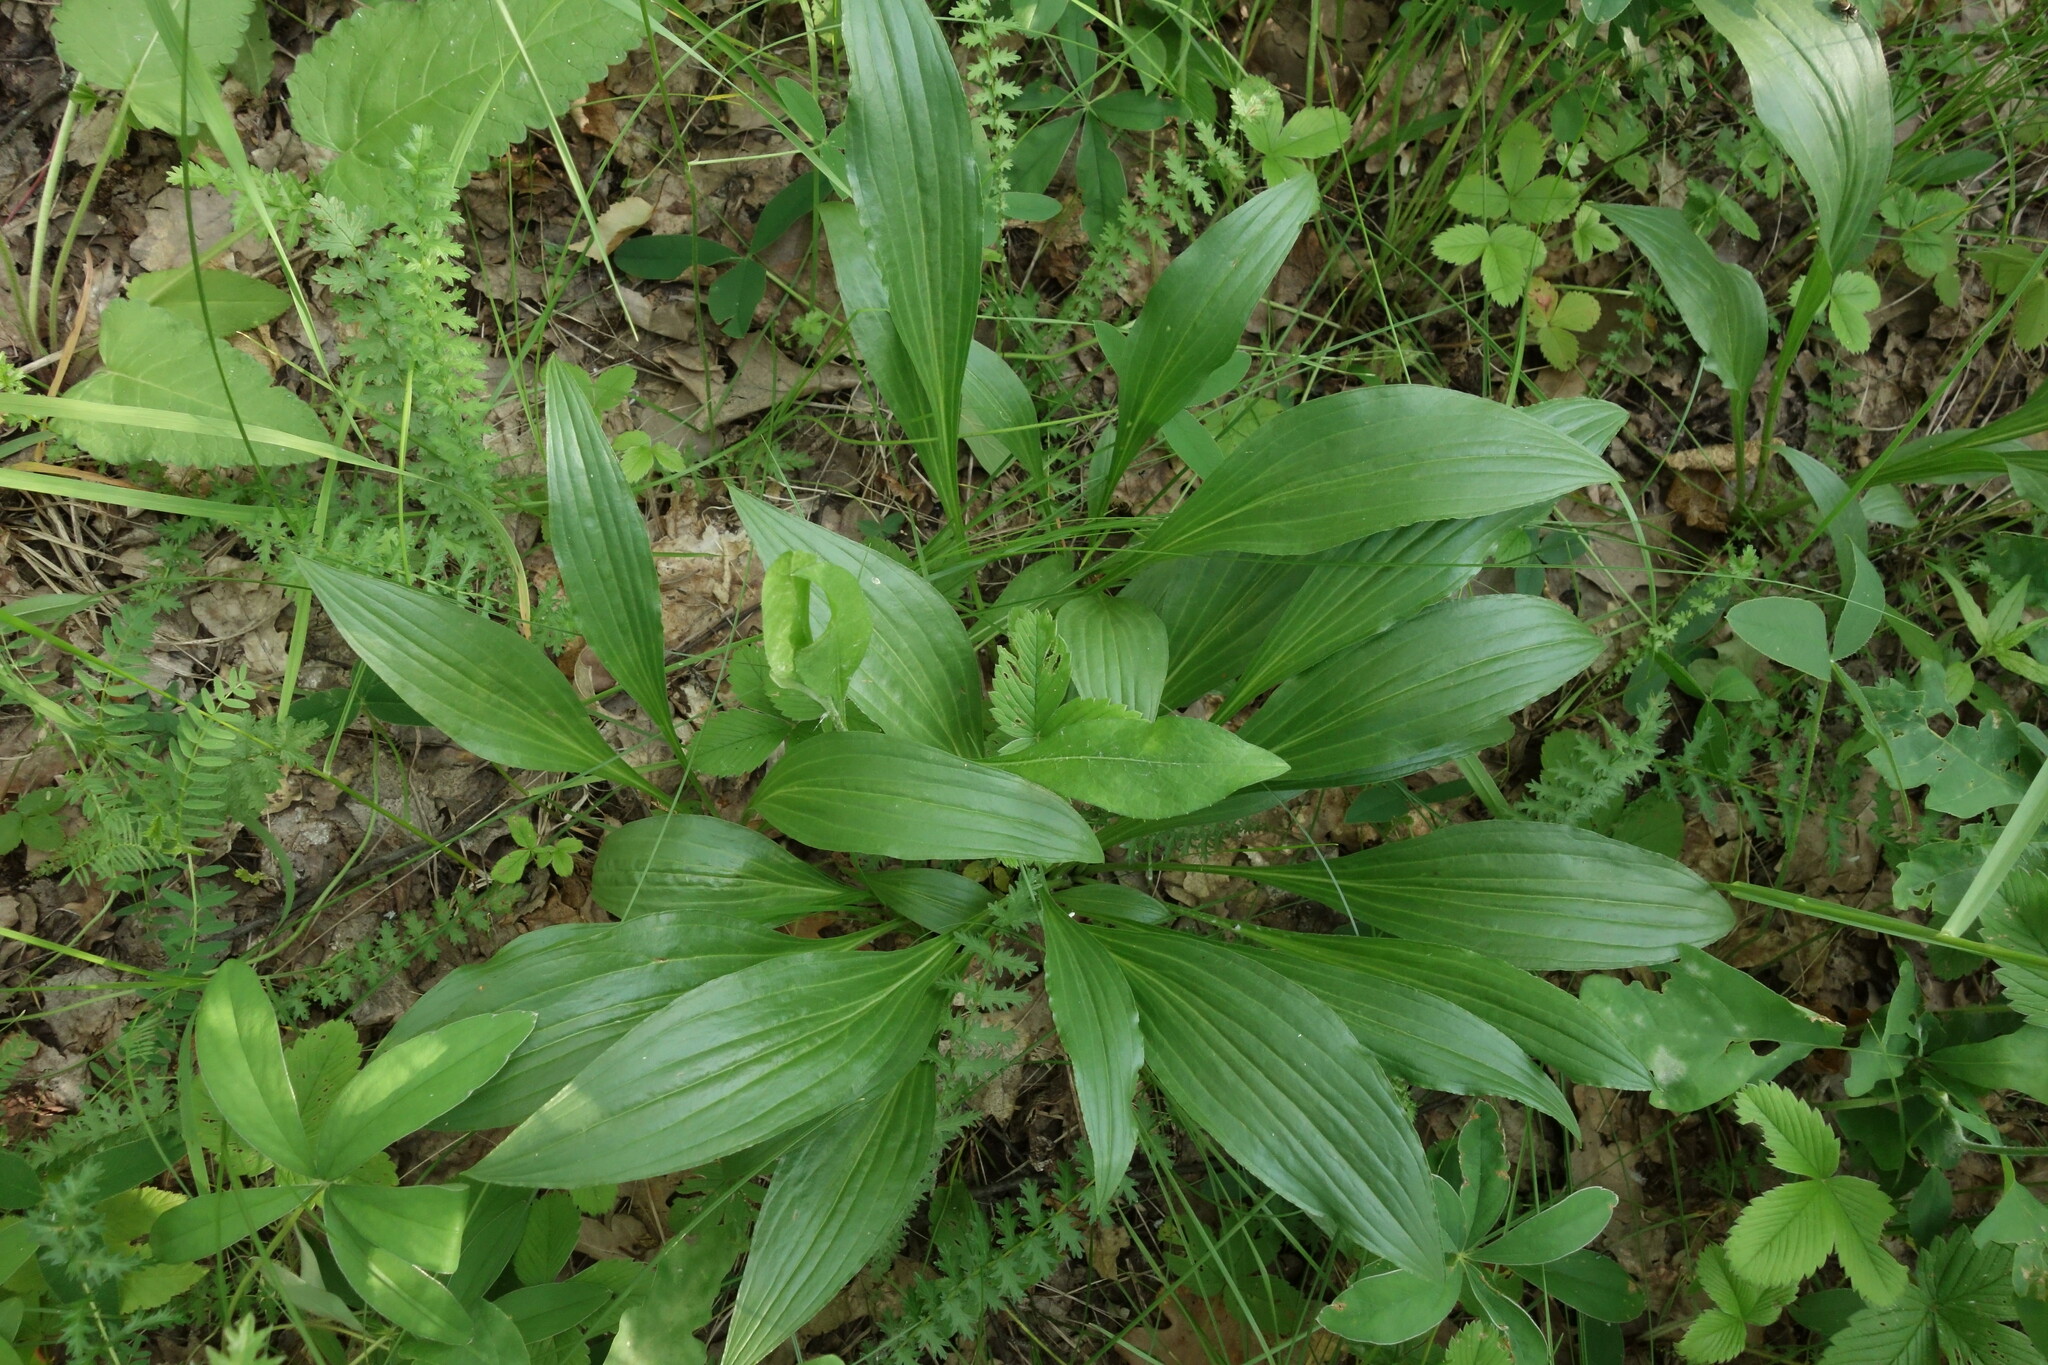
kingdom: Plantae
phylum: Tracheophyta
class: Magnoliopsida
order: Asterales
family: Asteraceae
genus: Scorzonera
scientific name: Scorzonera humilis
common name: Viper's-grass
